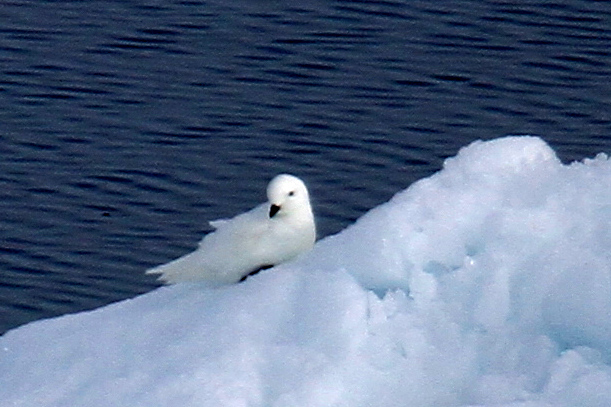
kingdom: Animalia
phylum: Chordata
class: Aves
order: Procellariiformes
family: Procellariidae
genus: Pagodroma
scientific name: Pagodroma nivea
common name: Snow petrel
